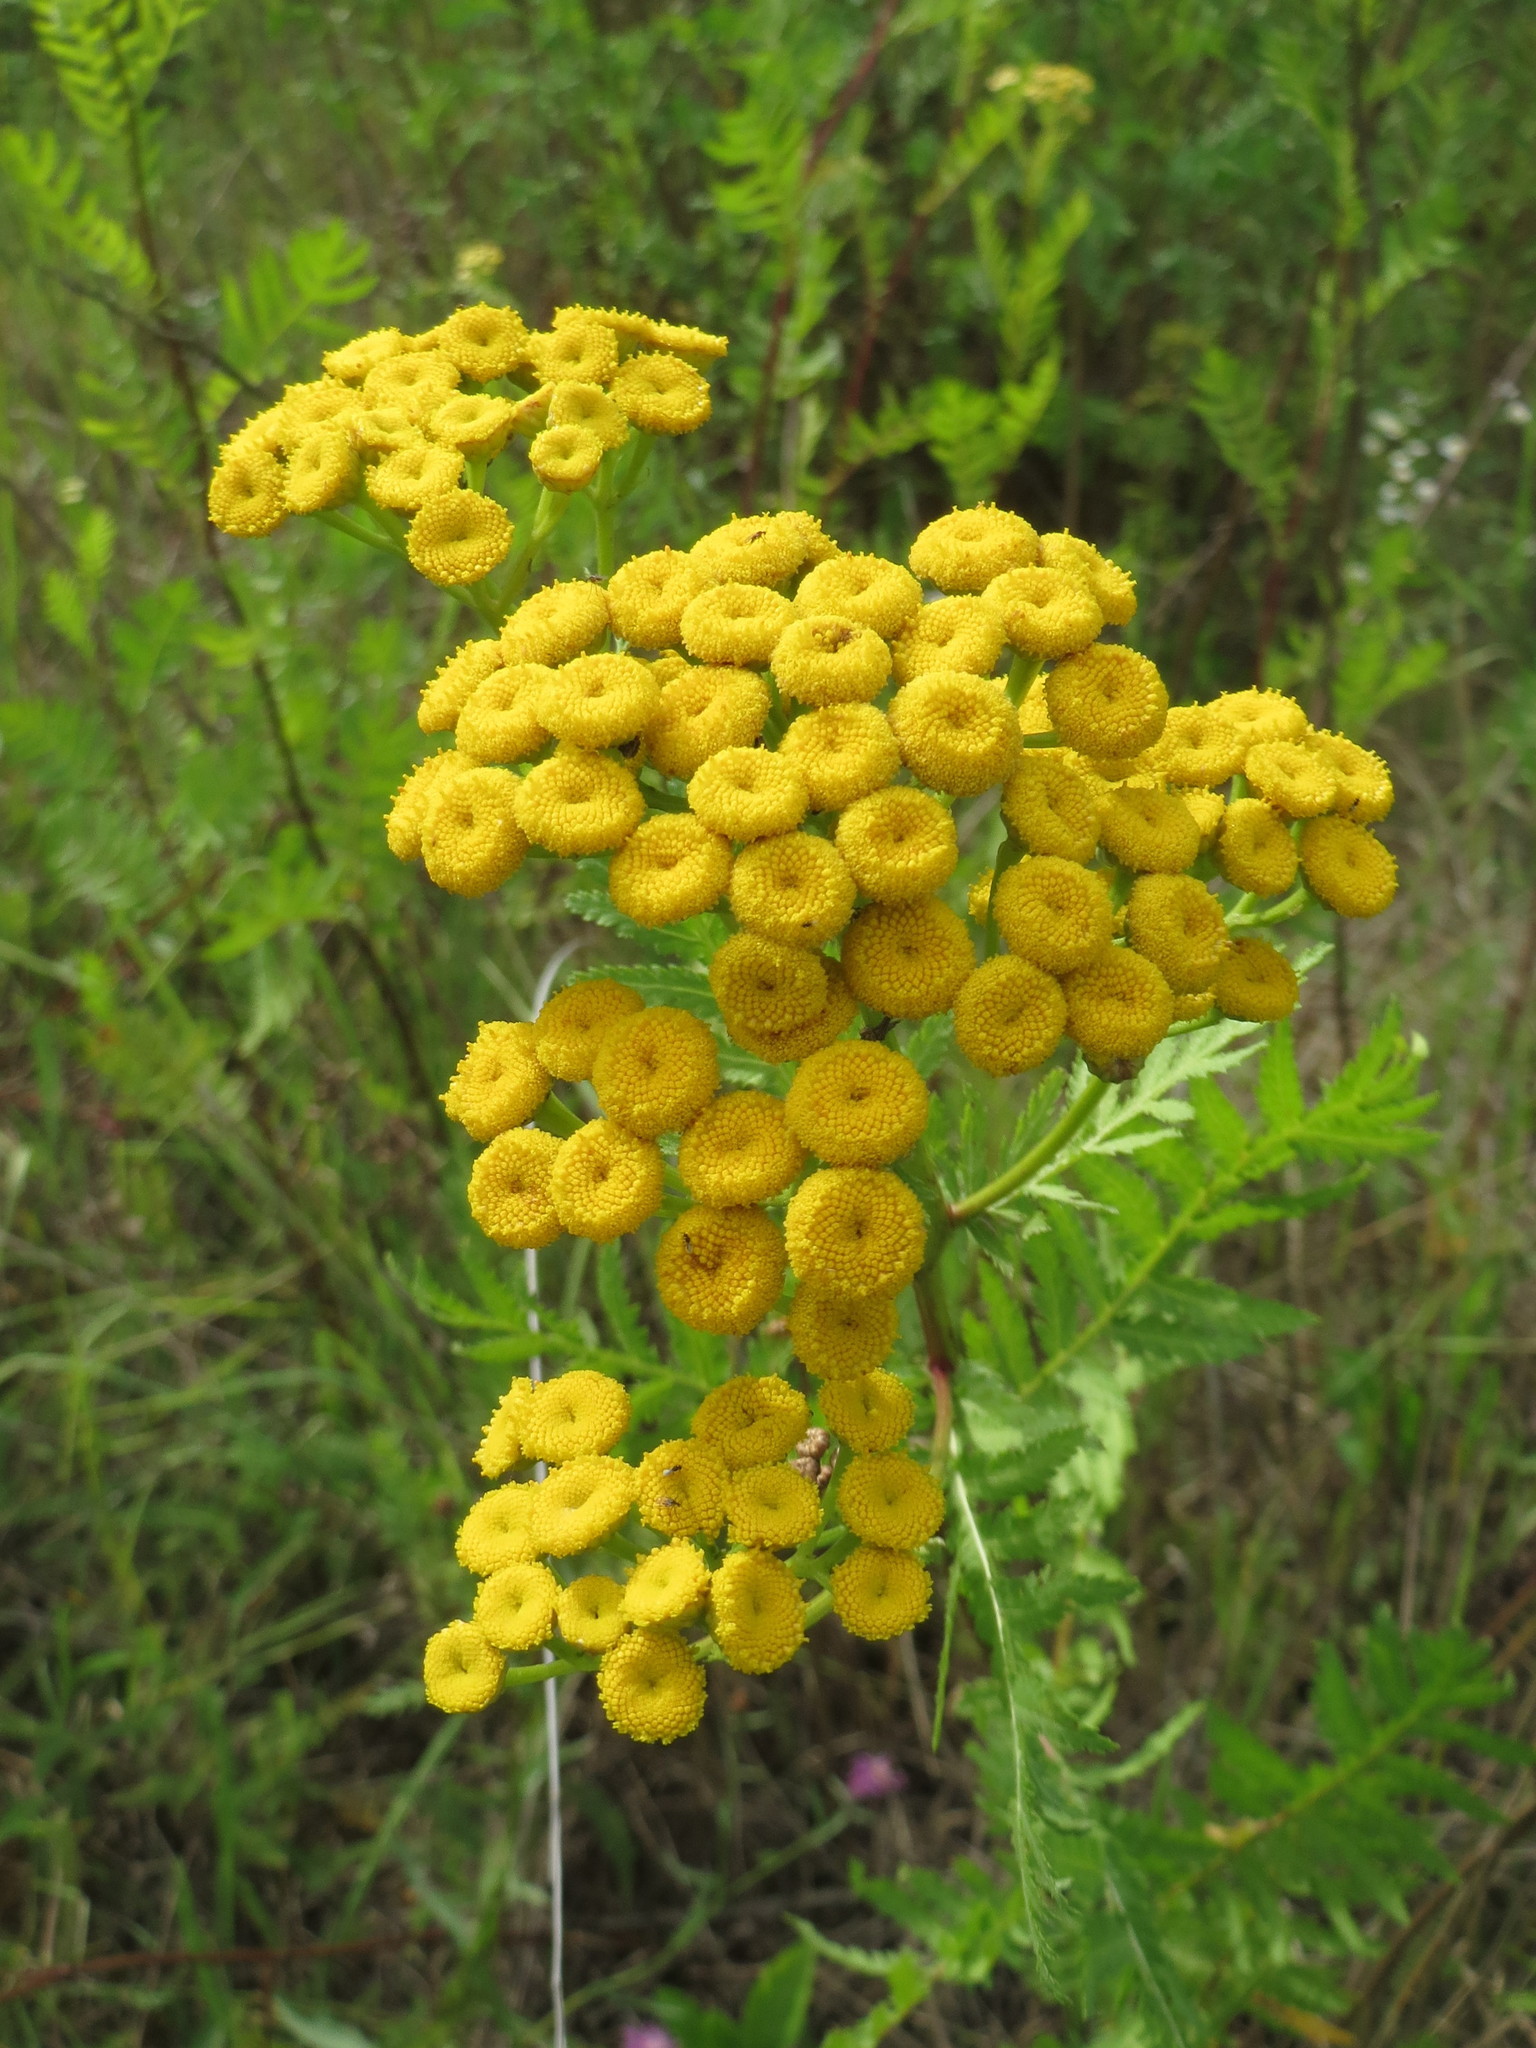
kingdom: Plantae
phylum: Tracheophyta
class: Magnoliopsida
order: Asterales
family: Asteraceae
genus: Tanacetum
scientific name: Tanacetum vulgare
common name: Common tansy
